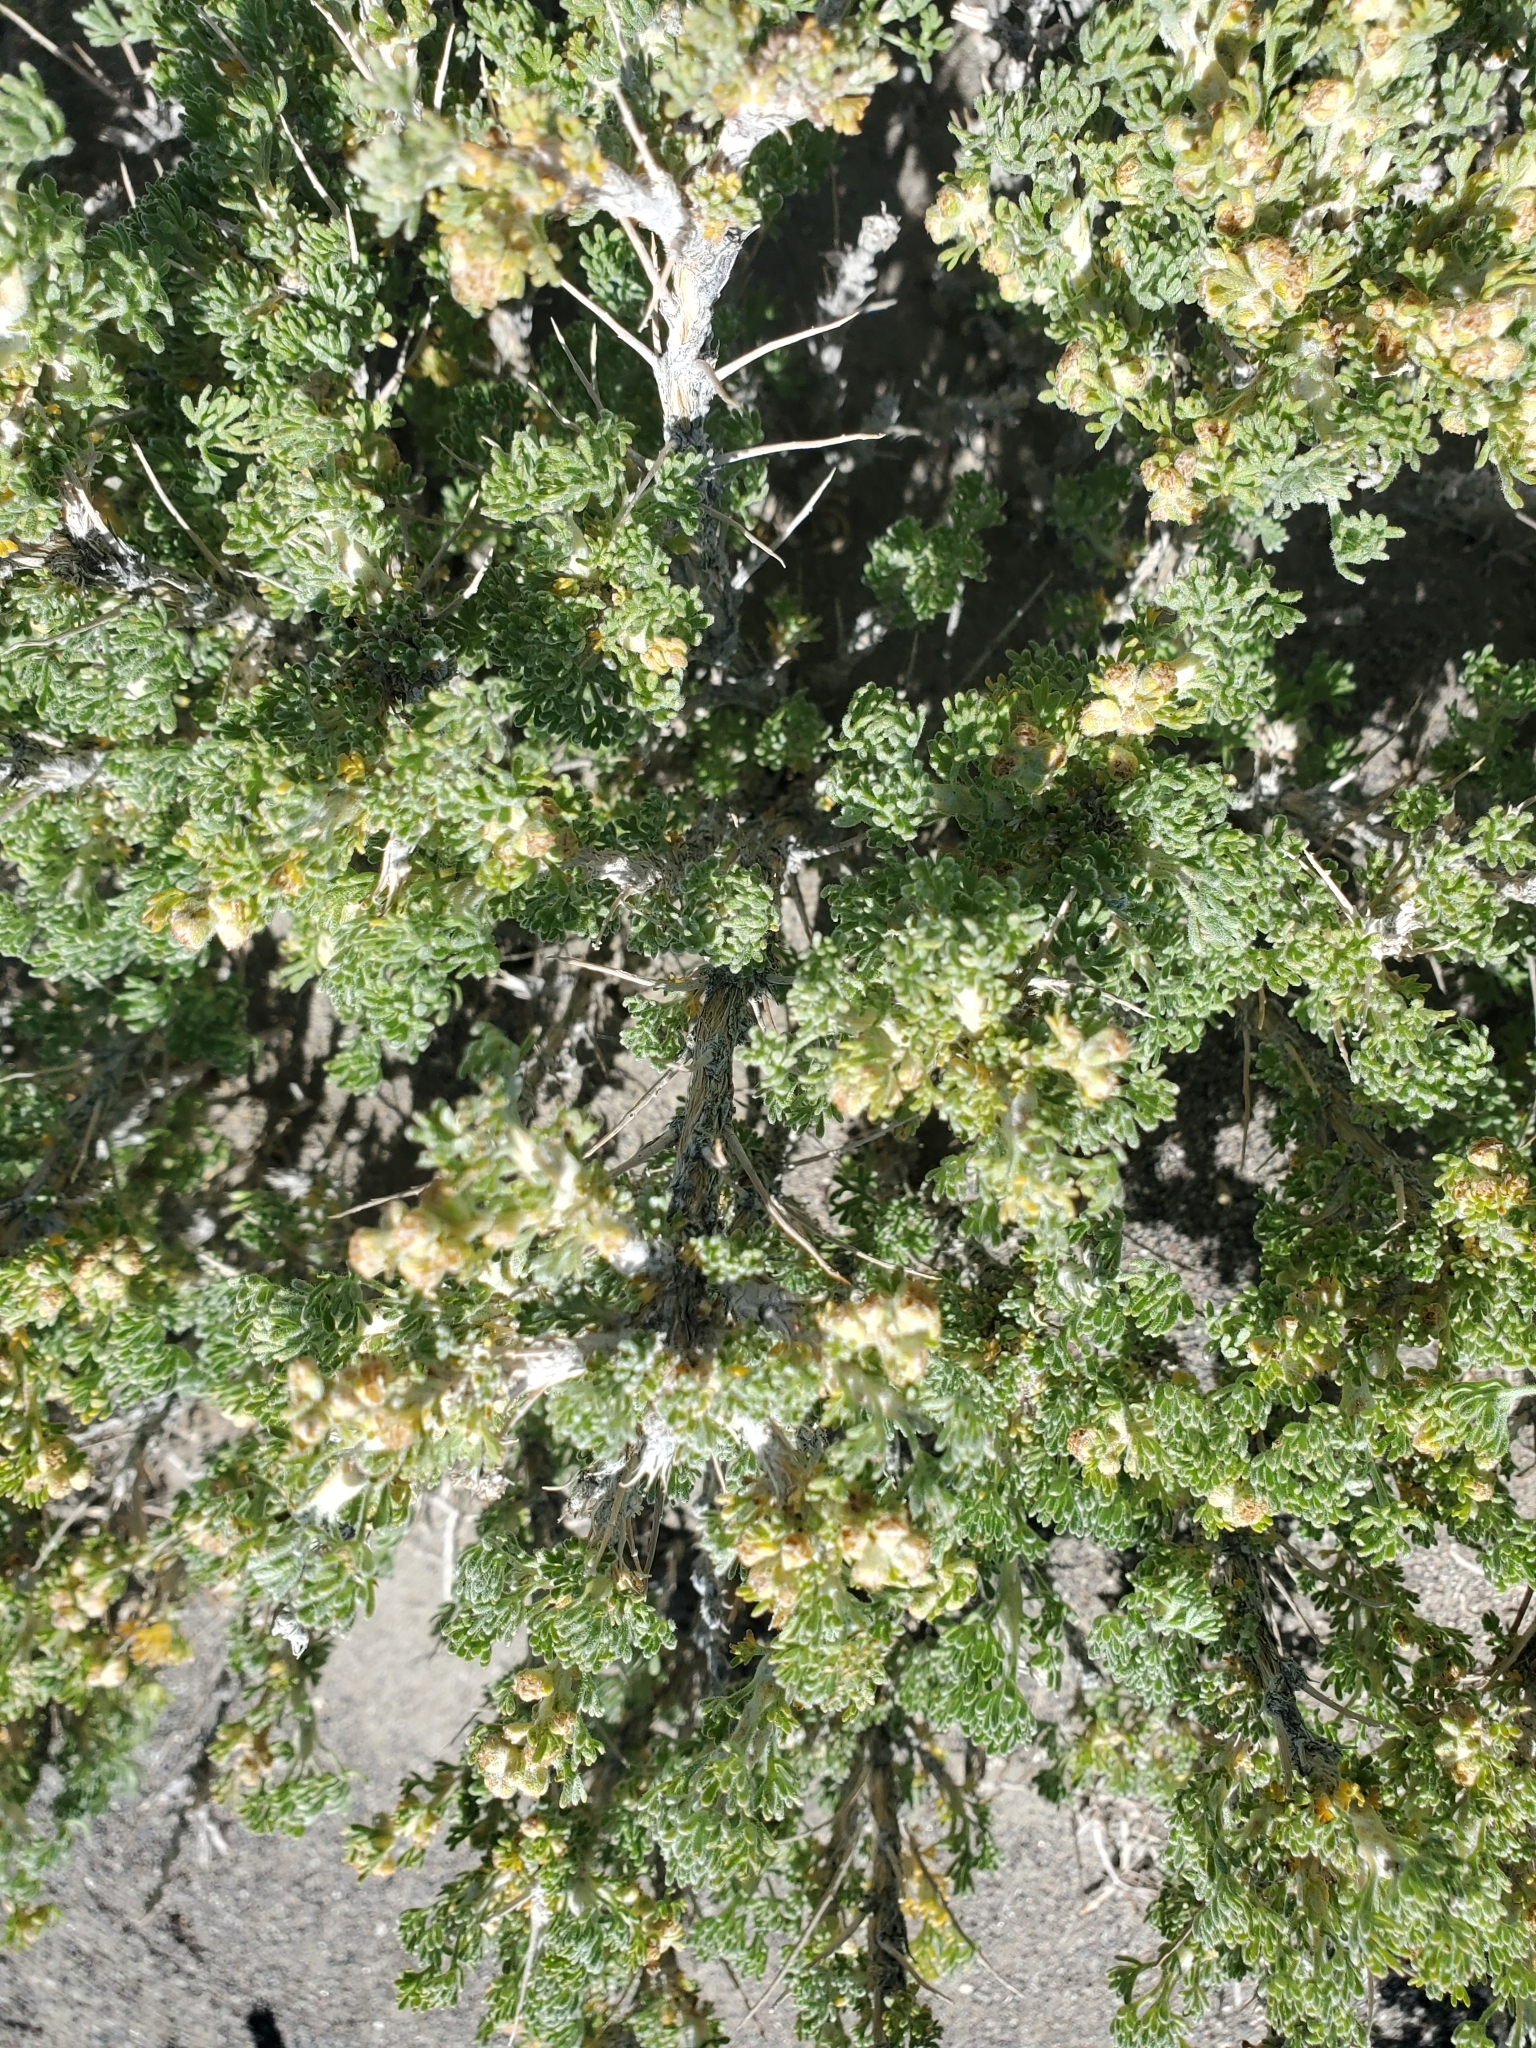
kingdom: Plantae
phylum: Tracheophyta
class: Magnoliopsida
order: Asterales
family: Asteraceae
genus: Artemisia
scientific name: Artemisia spinescens
